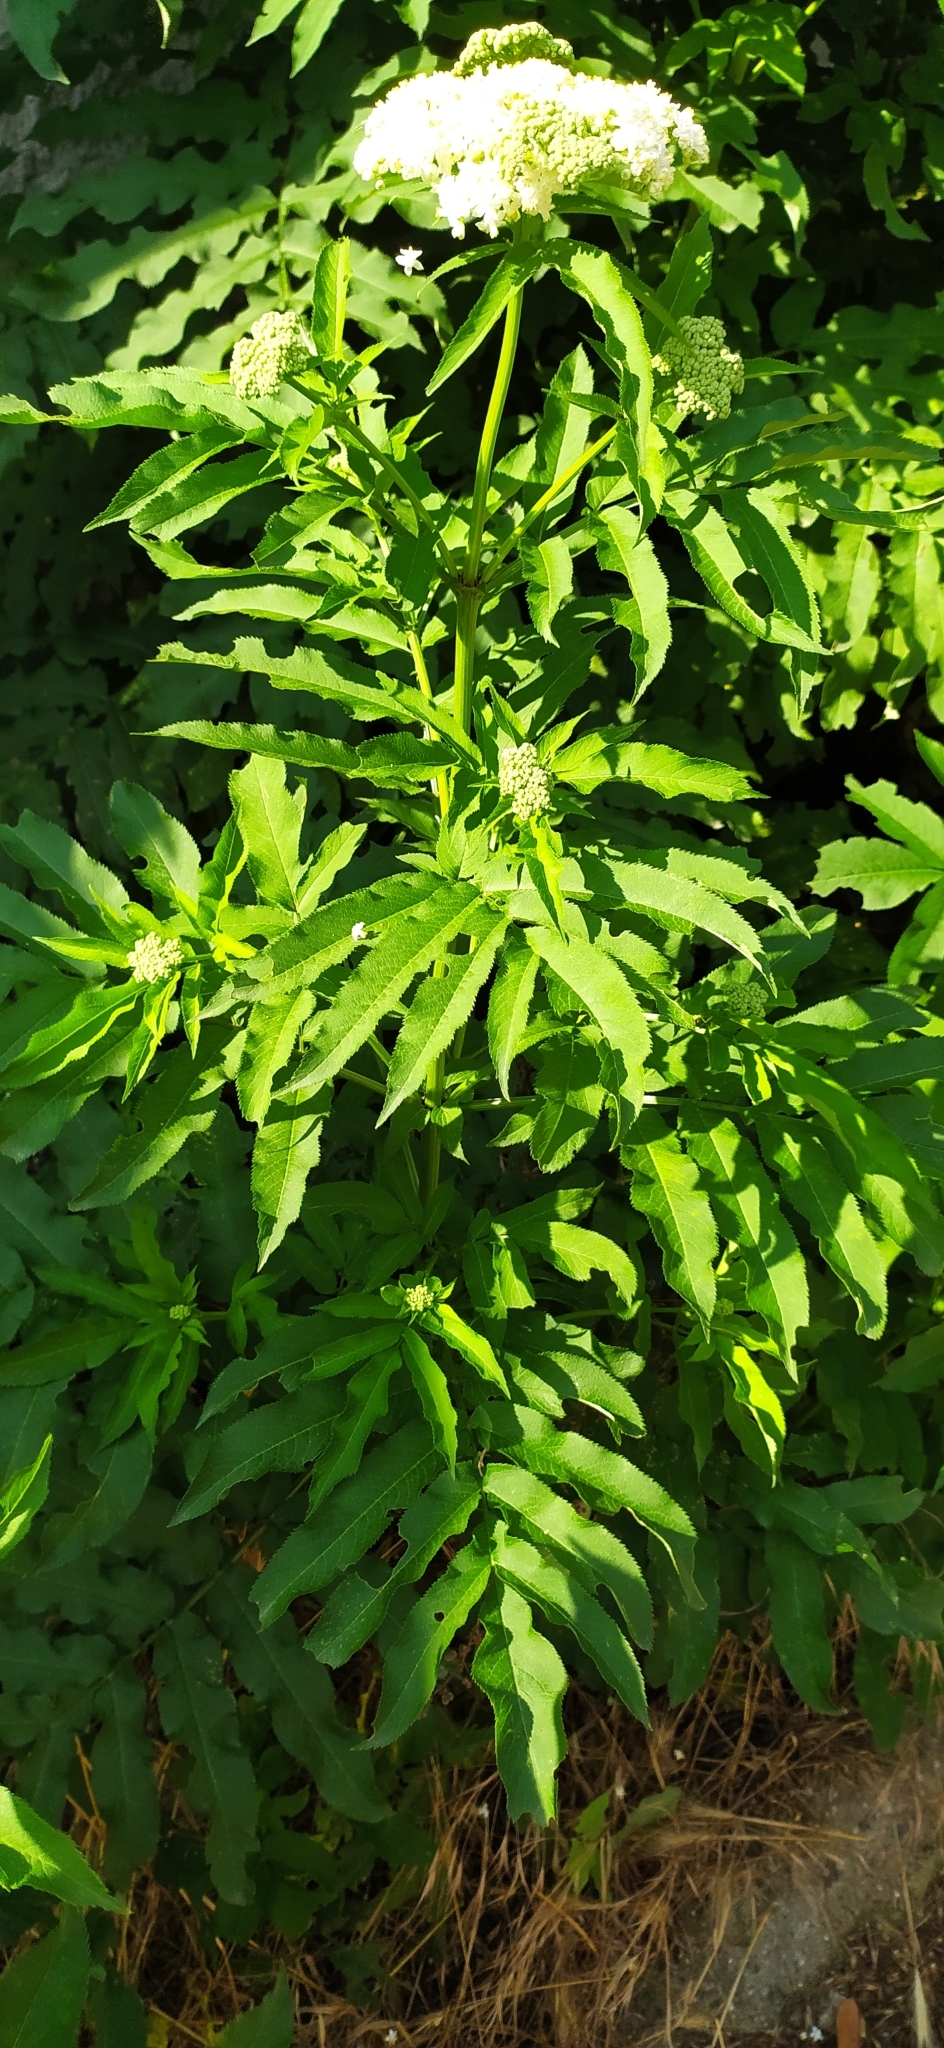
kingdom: Plantae
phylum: Tracheophyta
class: Magnoliopsida
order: Dipsacales
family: Viburnaceae
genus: Sambucus
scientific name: Sambucus ebulus
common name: Dwarf elder
